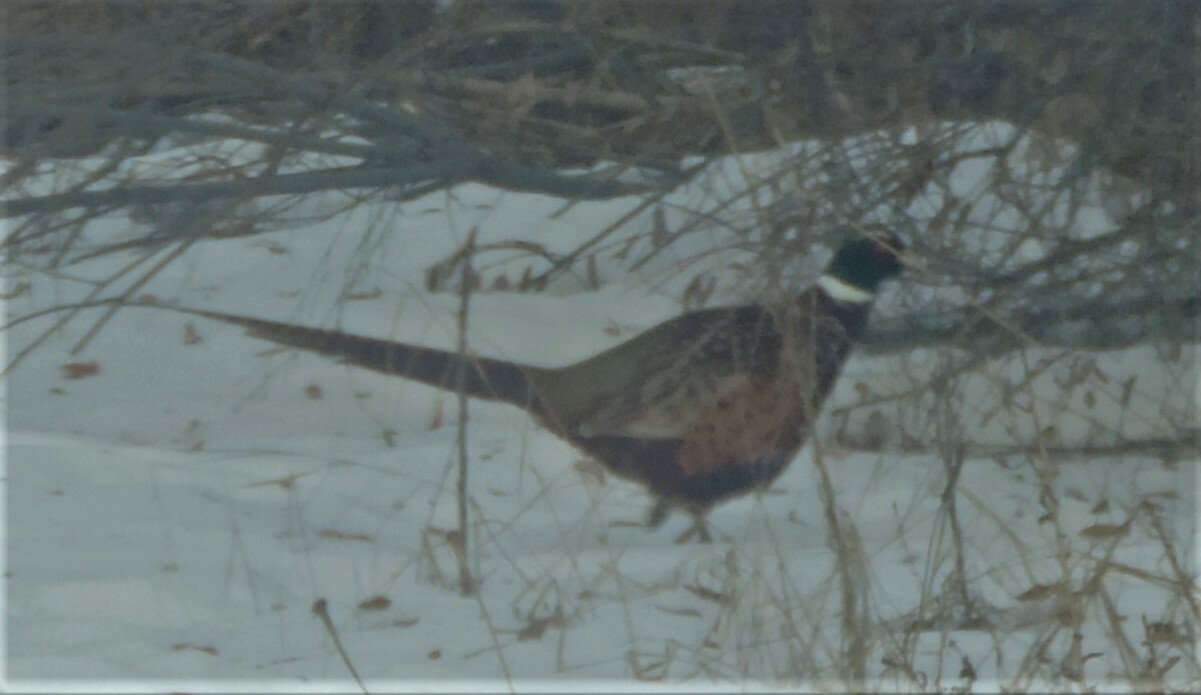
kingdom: Animalia
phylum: Chordata
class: Aves
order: Galliformes
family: Phasianidae
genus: Phasianus
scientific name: Phasianus colchicus
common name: Common pheasant
